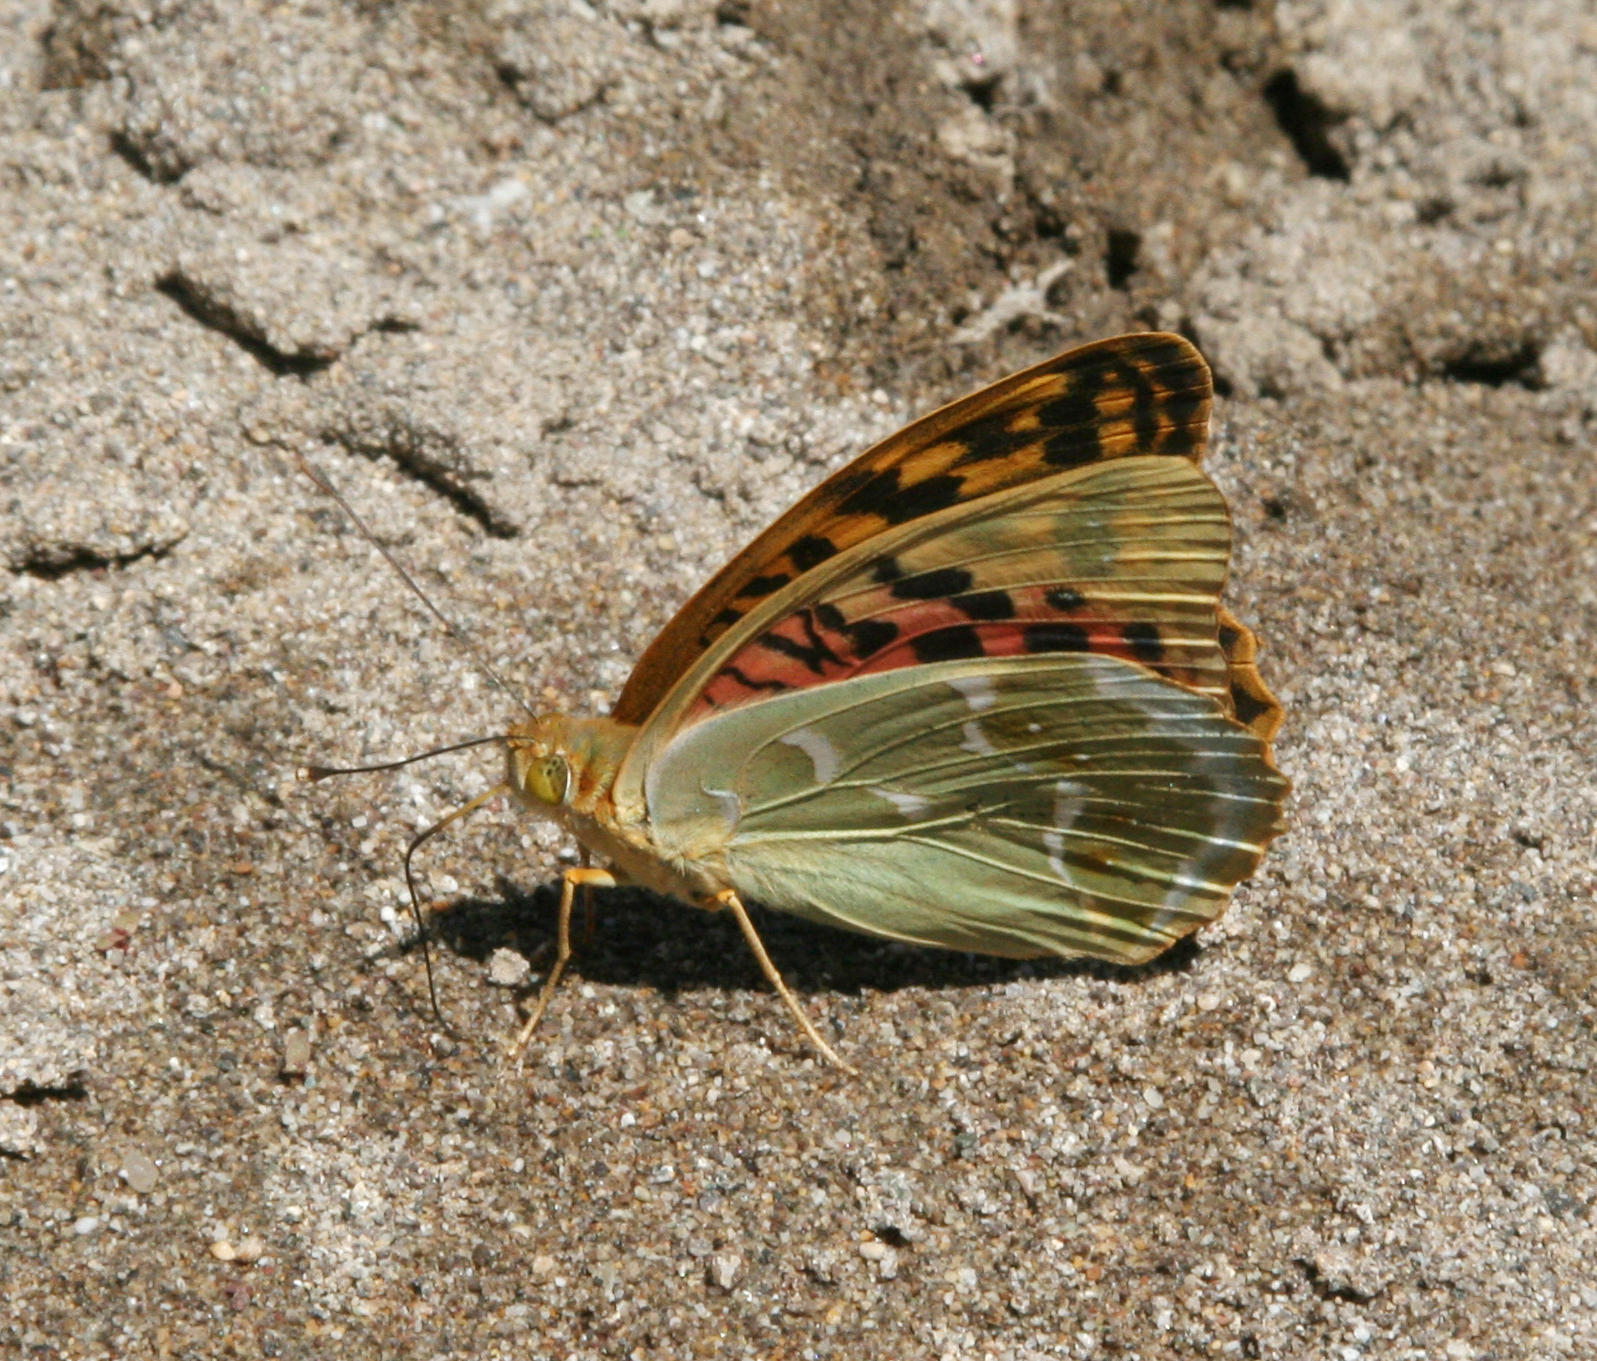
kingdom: Animalia
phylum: Arthropoda
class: Insecta
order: Lepidoptera
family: Nymphalidae
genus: Damora
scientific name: Damora pandora
